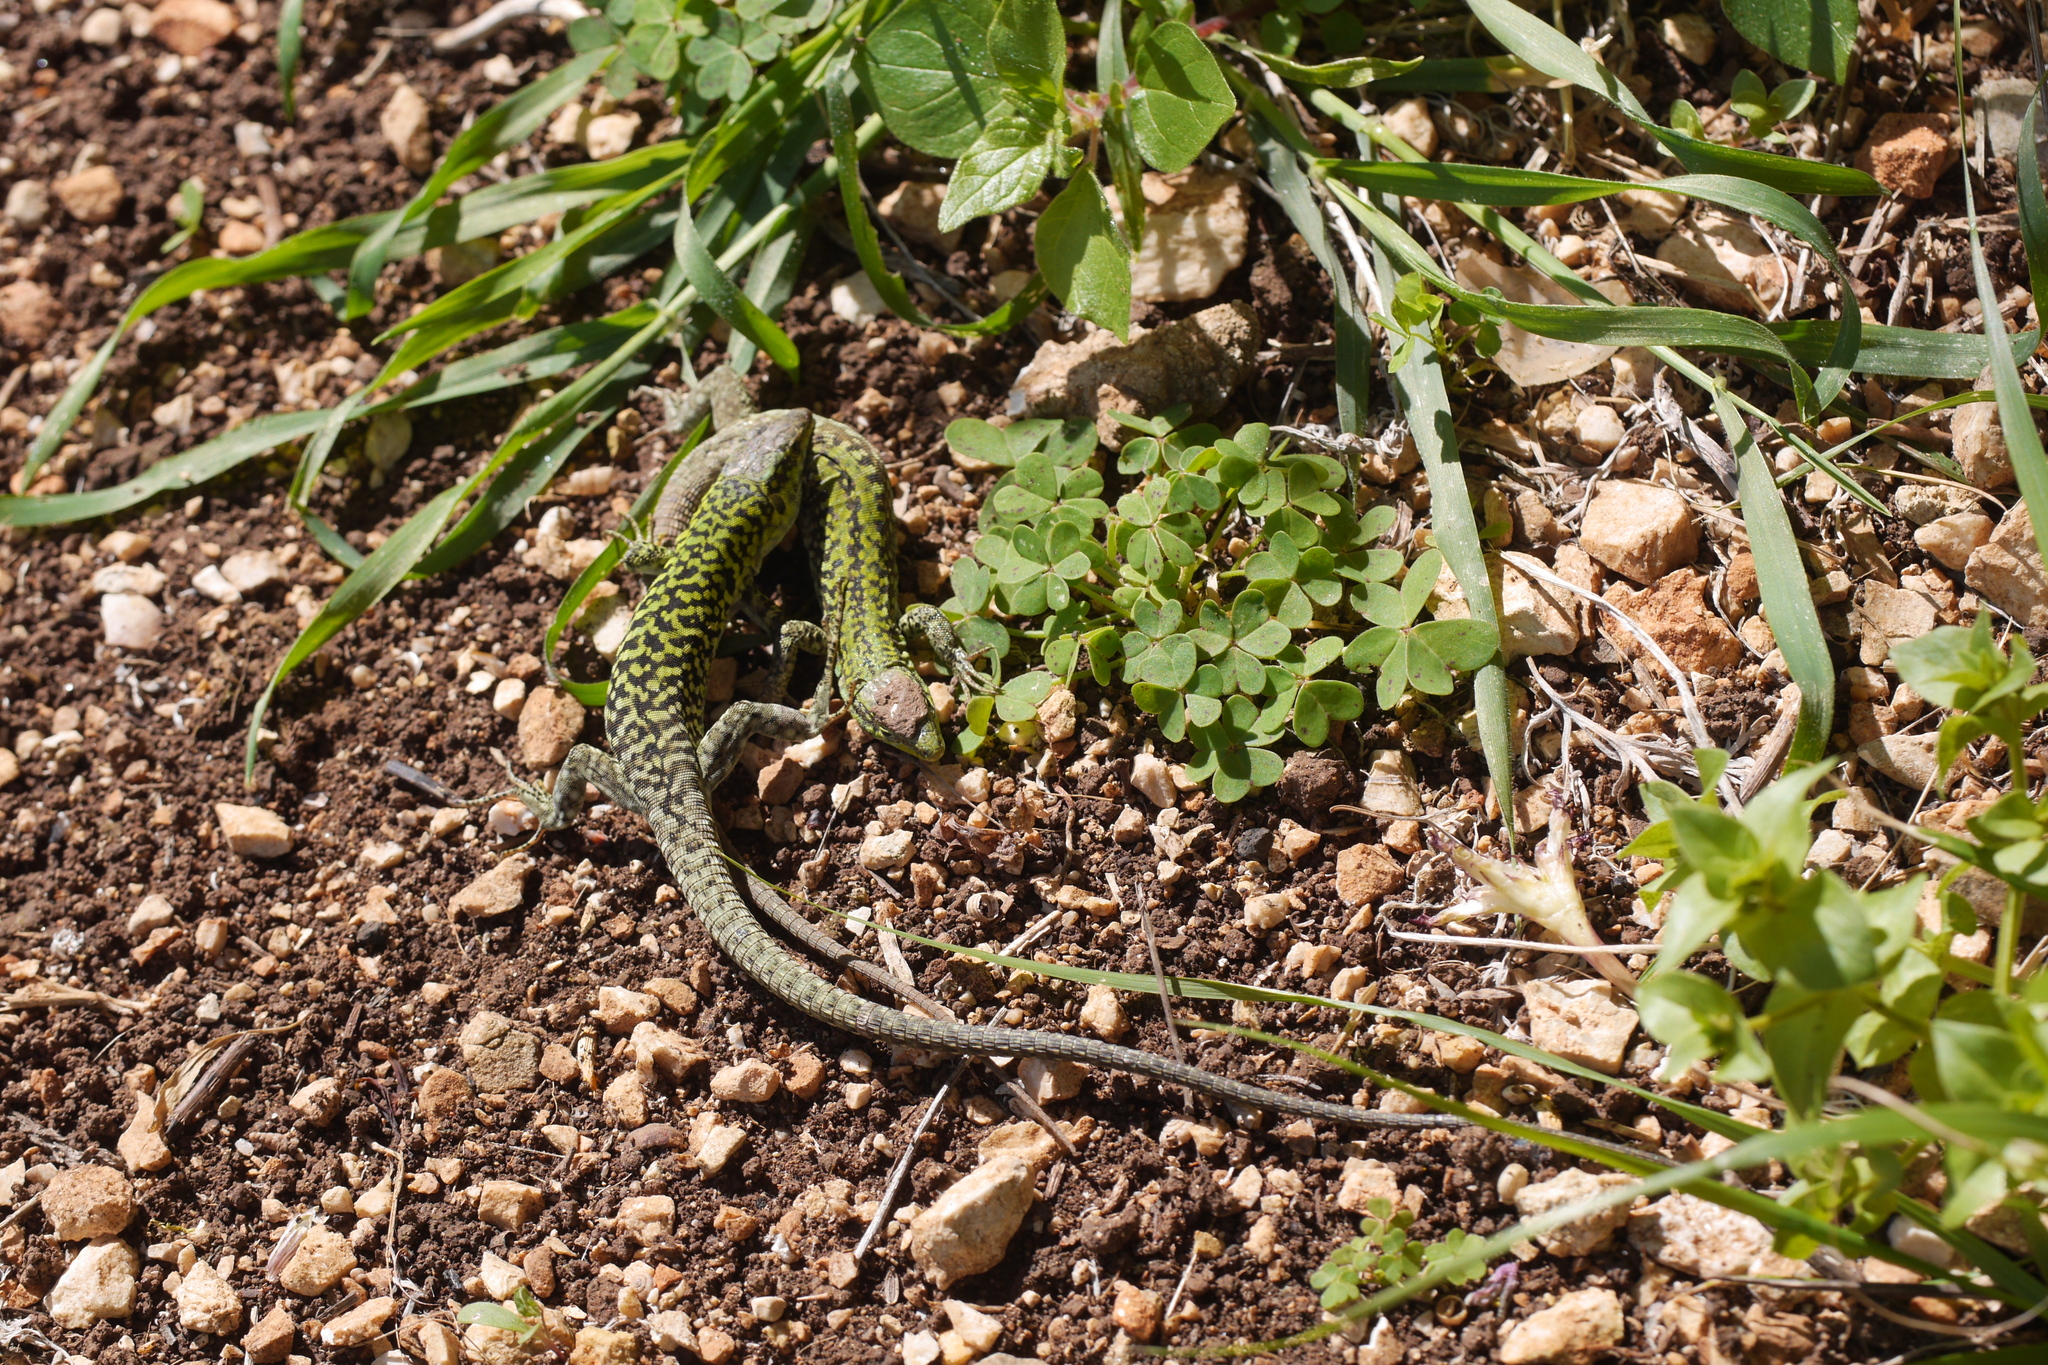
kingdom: Animalia
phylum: Chordata
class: Squamata
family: Lacertidae
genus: Podarcis
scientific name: Podarcis siculus
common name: Italian wall lizard
